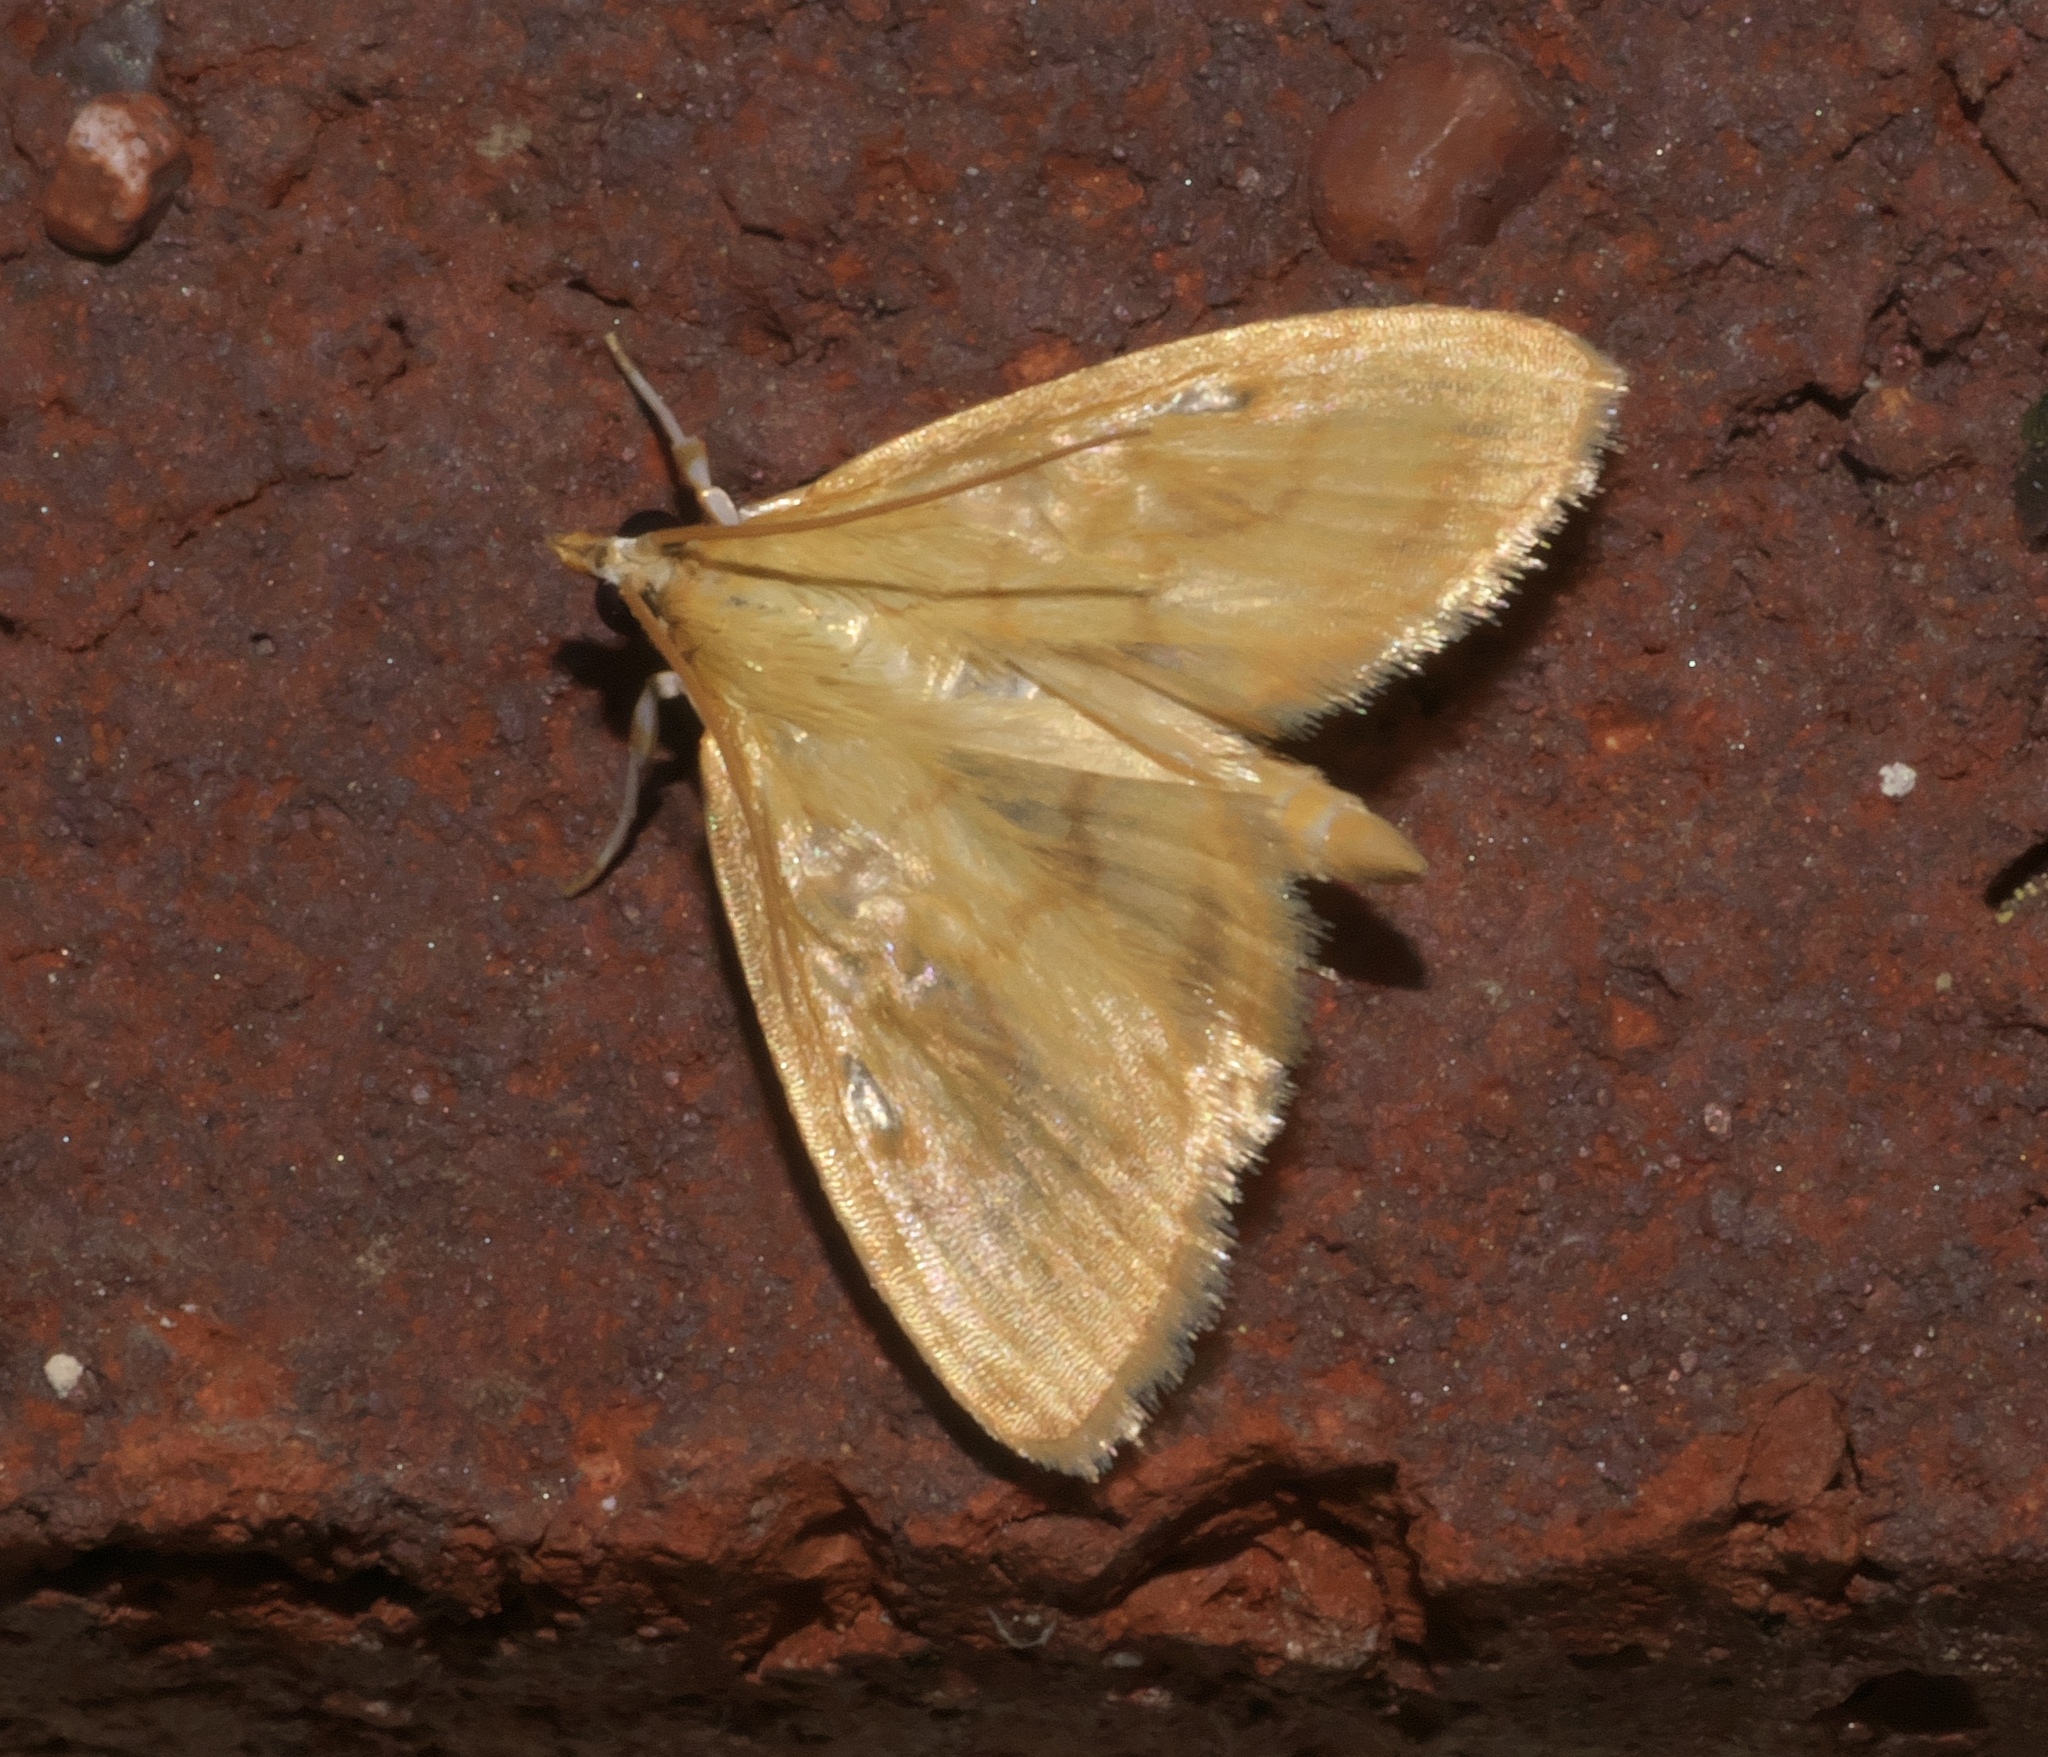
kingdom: Animalia
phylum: Arthropoda
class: Insecta
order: Lepidoptera
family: Crambidae
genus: Crocidophora
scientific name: Crocidophora tuberculalis
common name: Pale-winged crocidiphora moth
